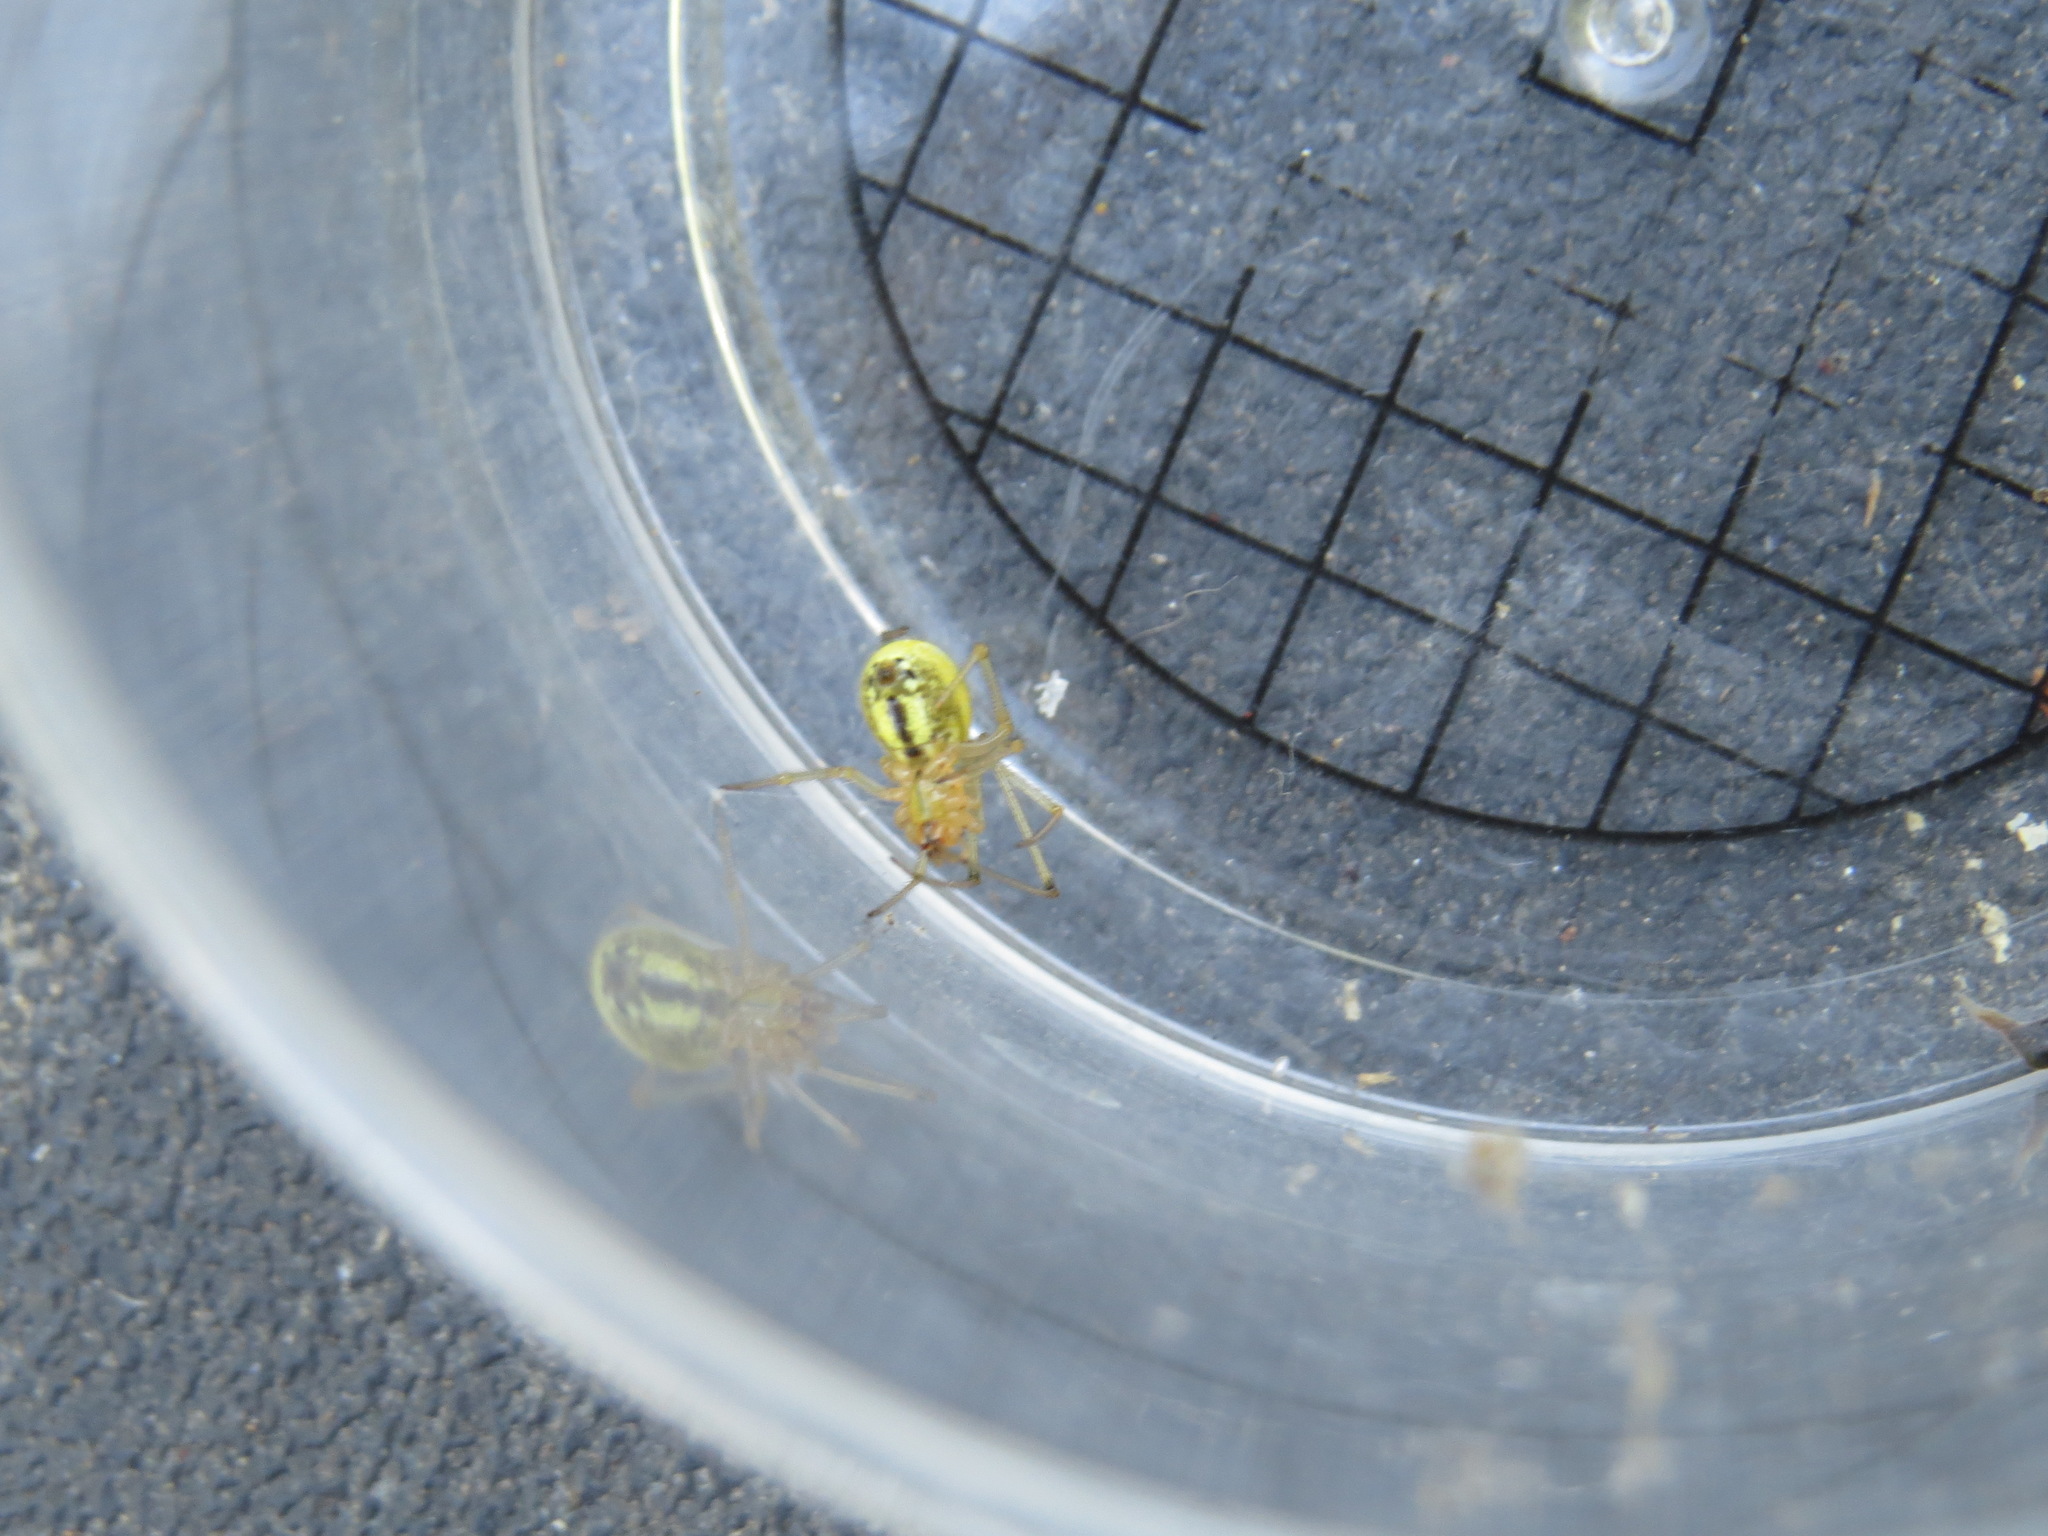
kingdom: Animalia
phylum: Arthropoda
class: Arachnida
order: Araneae
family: Theridiidae
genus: Enoplognatha
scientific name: Enoplognatha ovata
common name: Common candy-striped spider
